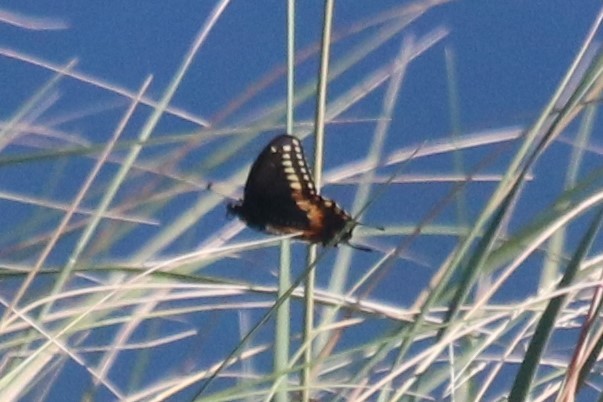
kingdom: Animalia
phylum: Arthropoda
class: Insecta
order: Lepidoptera
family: Papilionidae
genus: Papilio
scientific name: Papilio polyxenes
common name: Black swallowtail
